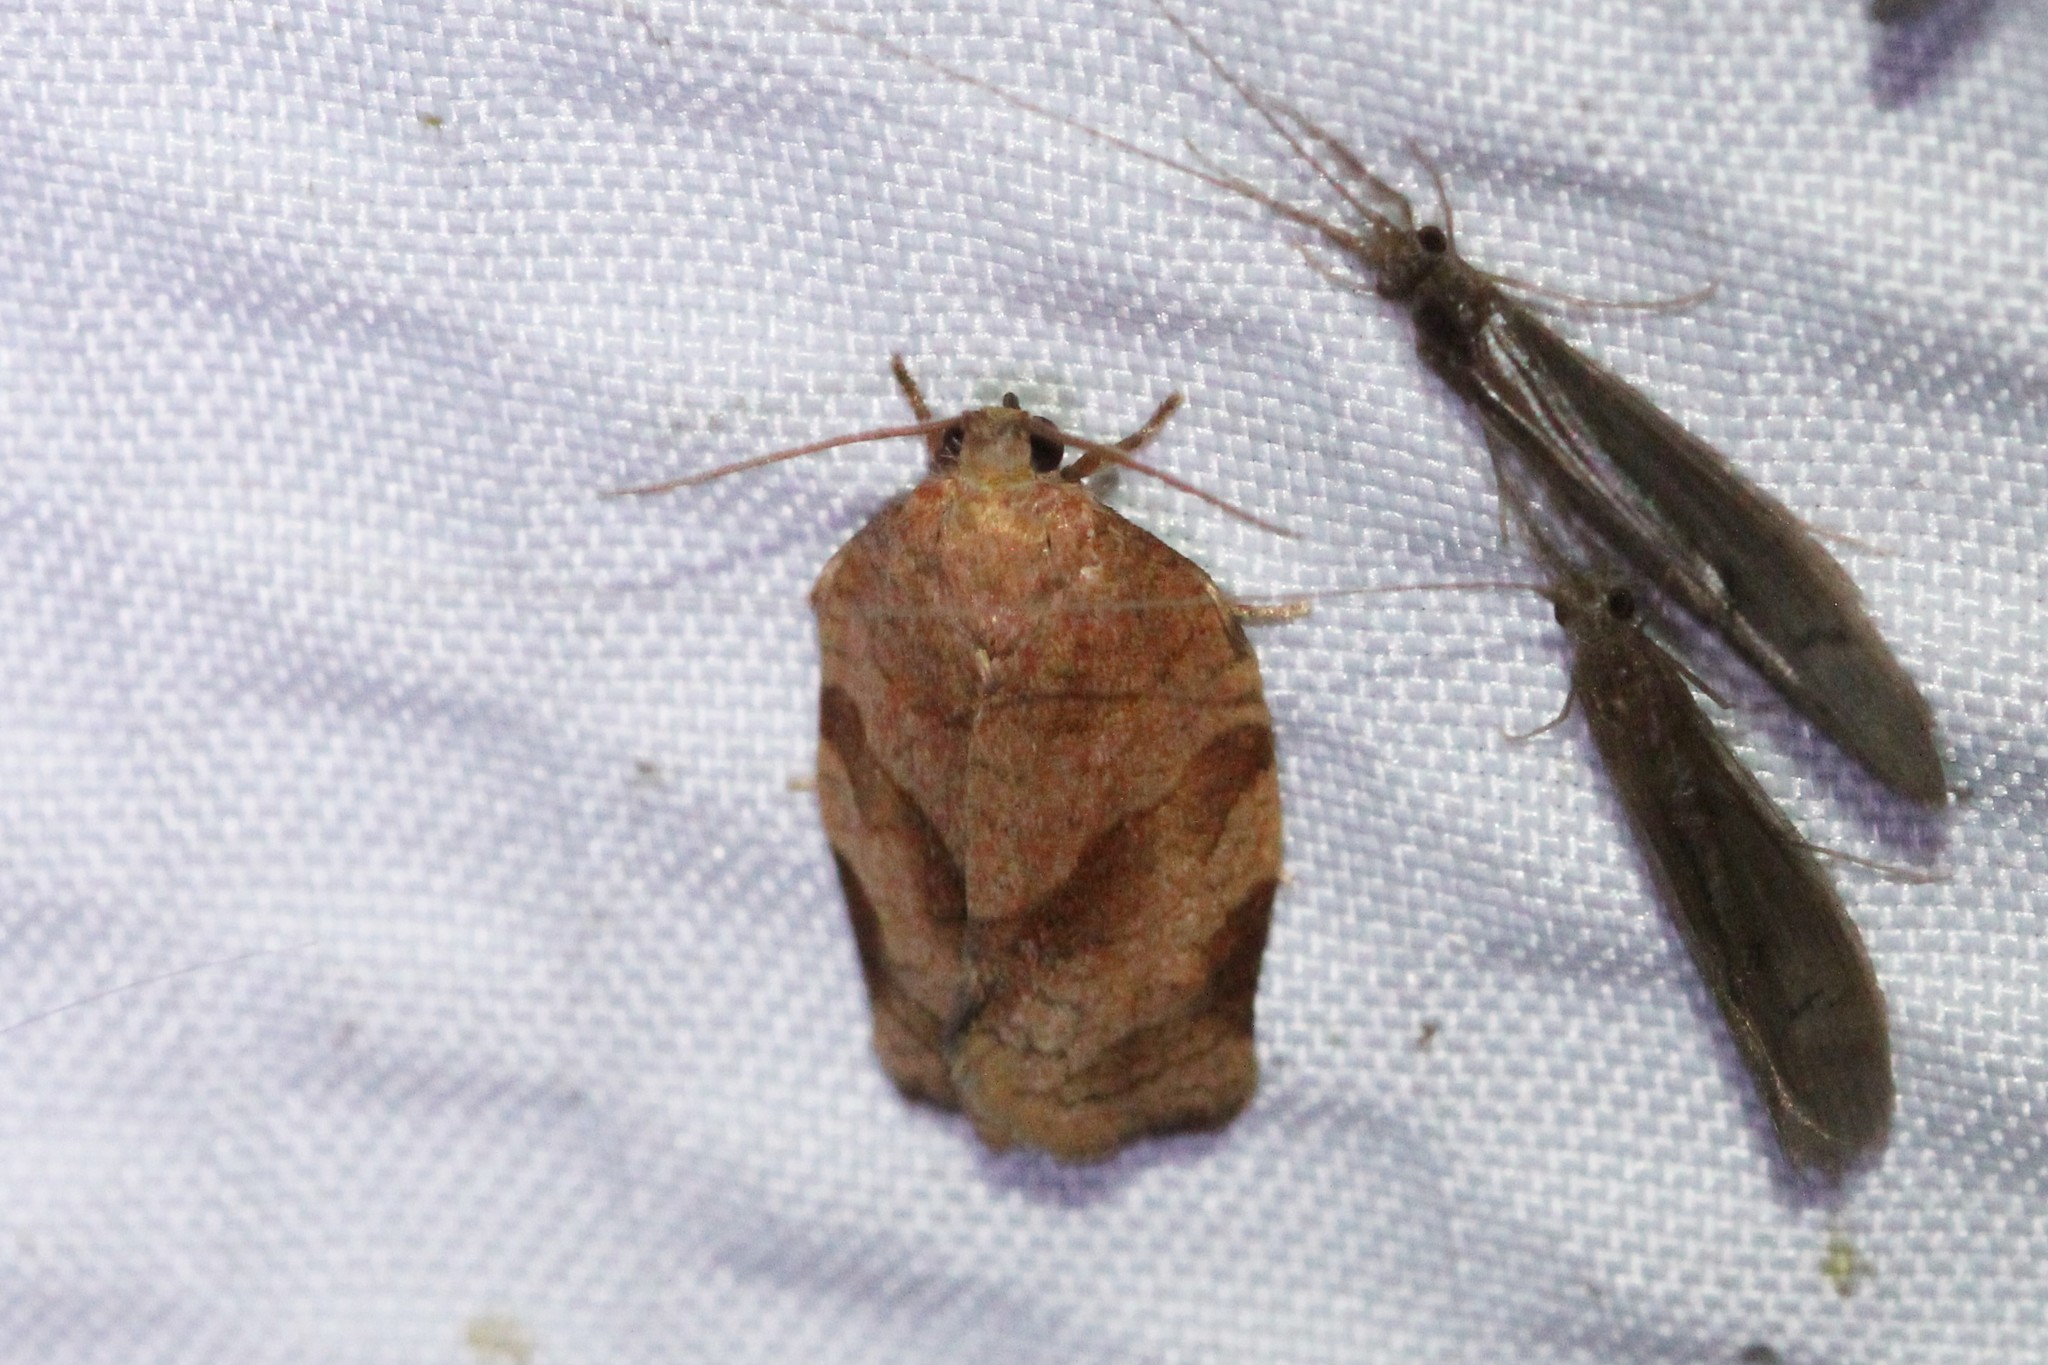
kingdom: Animalia
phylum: Arthropoda
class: Insecta
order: Lepidoptera
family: Tortricidae
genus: Choristoneura
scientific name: Choristoneura rosaceana
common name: Oblique-banded leafroller moth
